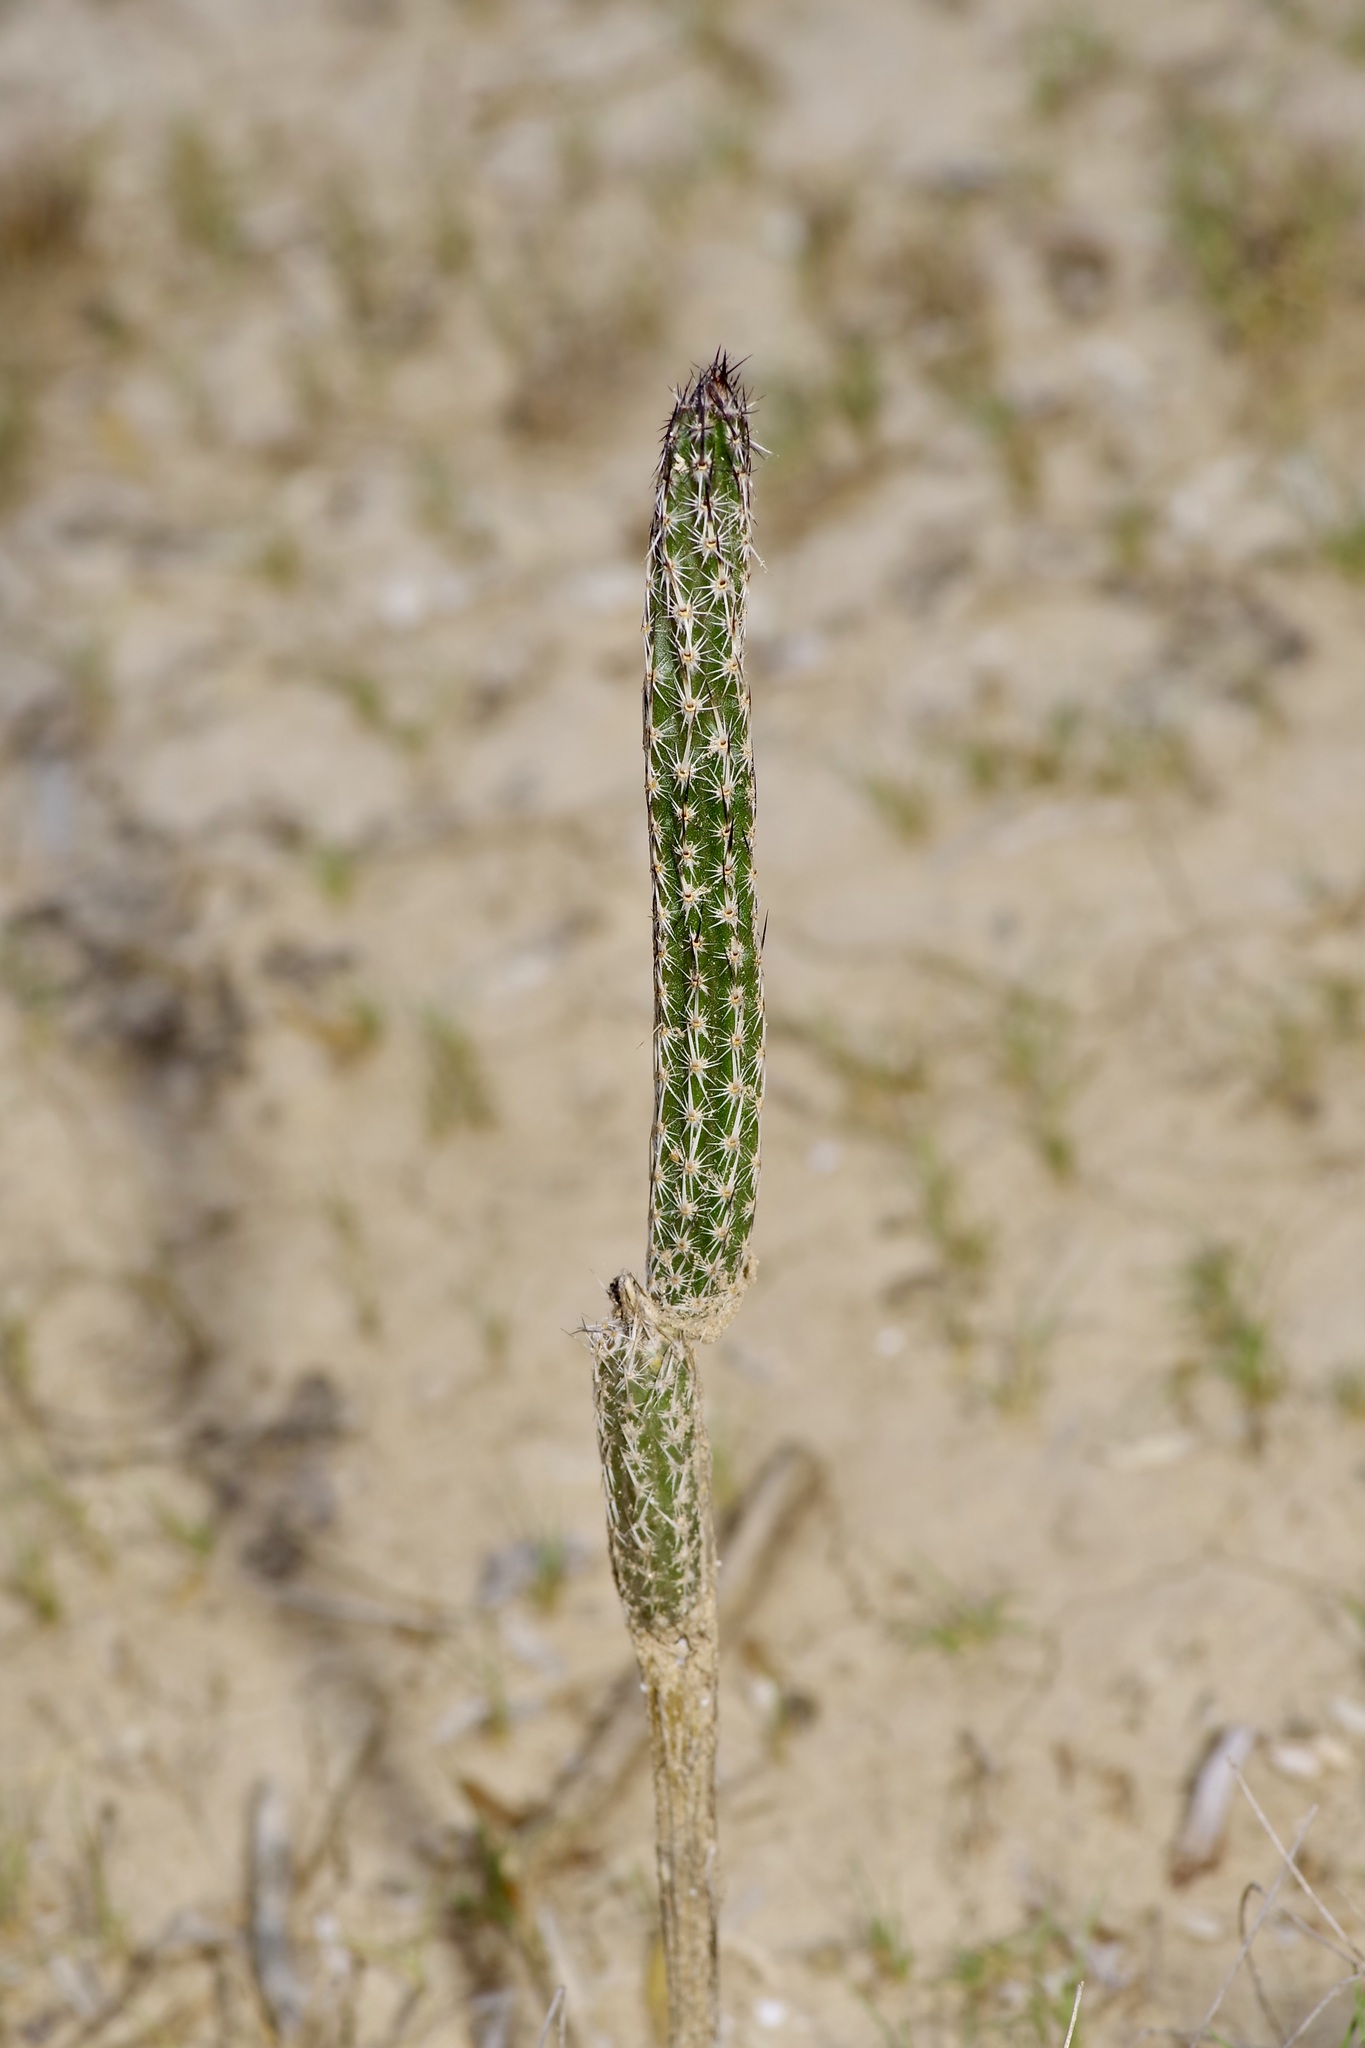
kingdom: Plantae
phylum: Tracheophyta
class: Magnoliopsida
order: Caryophyllales
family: Cactaceae
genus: Echinocereus
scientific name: Echinocereus poselgeri
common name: Dahlia apple cactus
